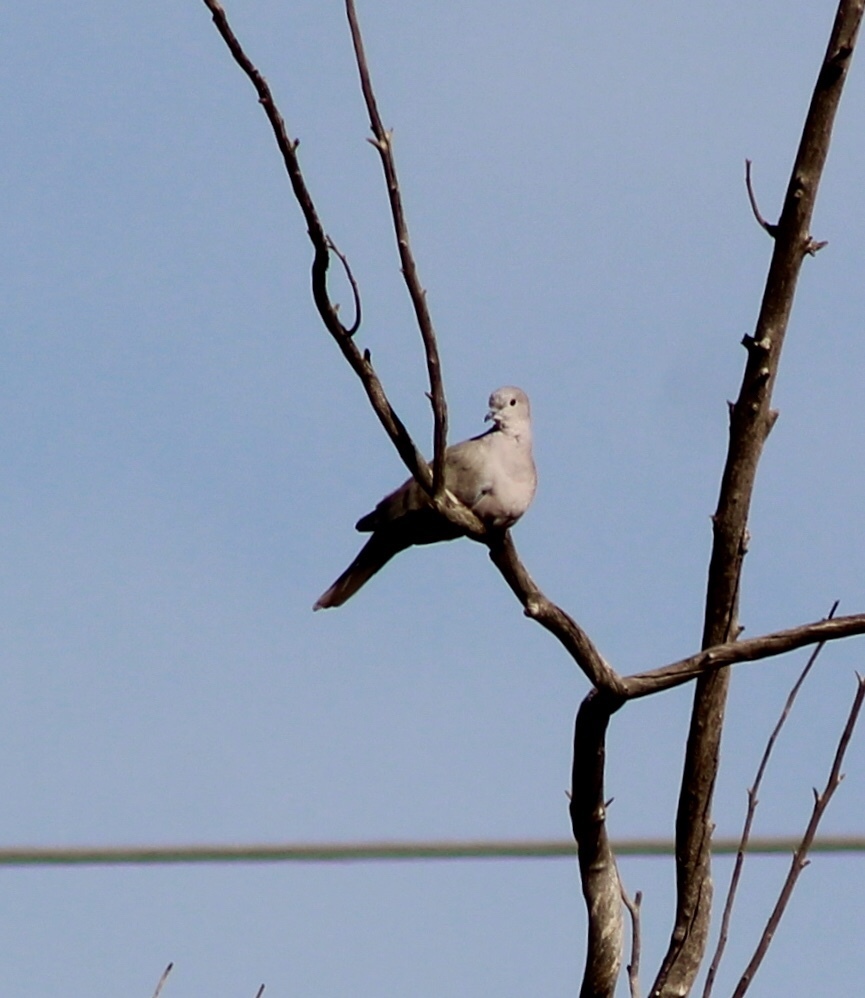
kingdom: Animalia
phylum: Chordata
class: Aves
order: Columbiformes
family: Columbidae
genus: Streptopelia
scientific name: Streptopelia decaocto
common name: Eurasian collared dove
